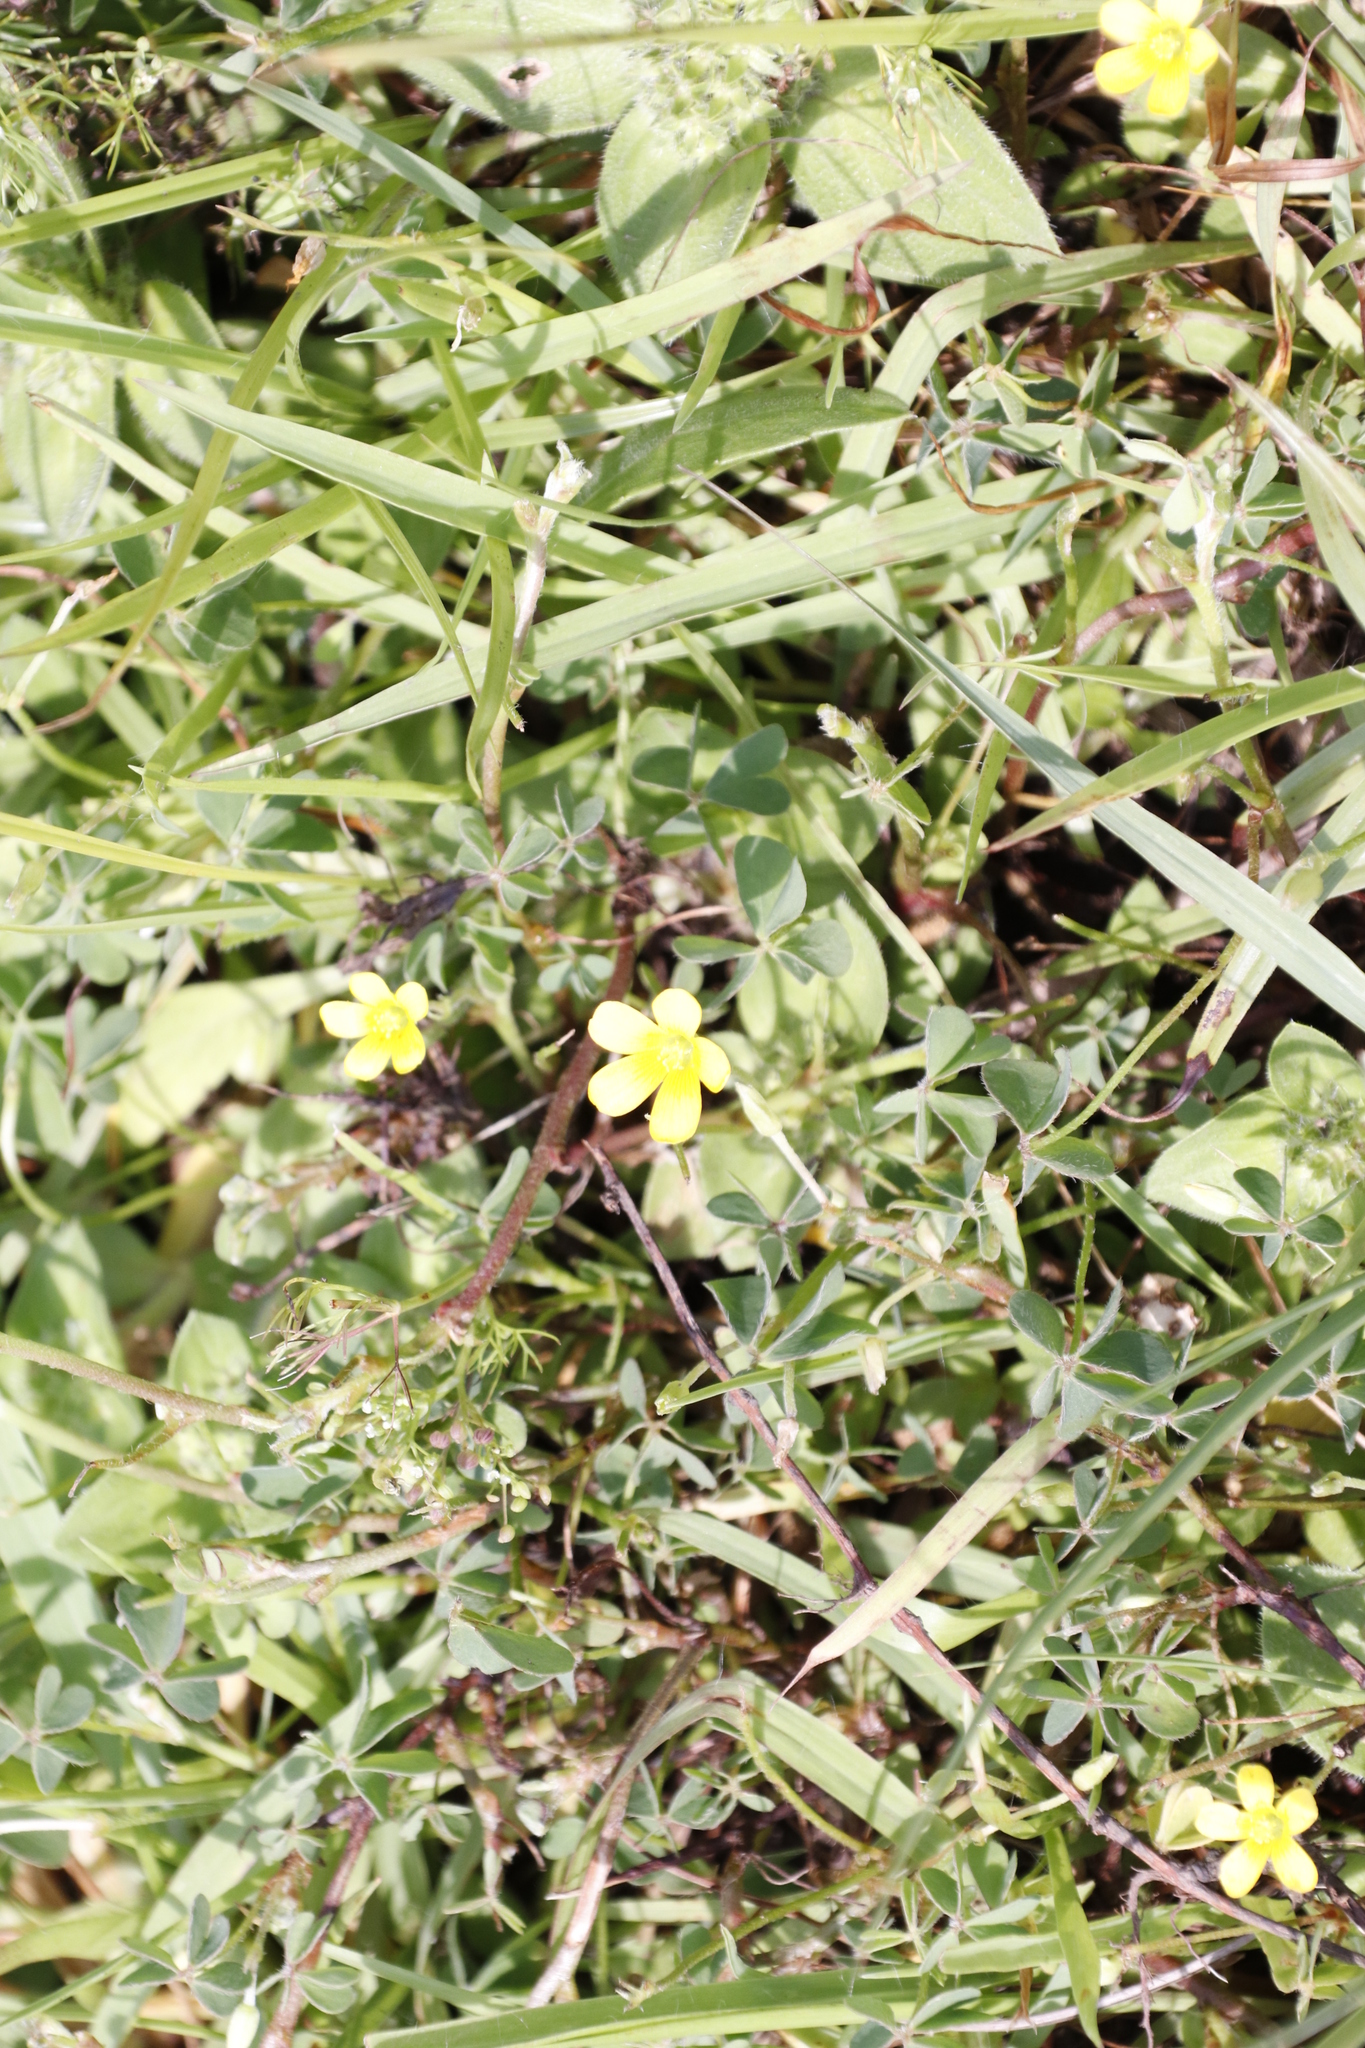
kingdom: Plantae
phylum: Tracheophyta
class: Magnoliopsida
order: Oxalidales
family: Oxalidaceae
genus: Oxalis
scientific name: Oxalis corniculata
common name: Procumbent yellow-sorrel
